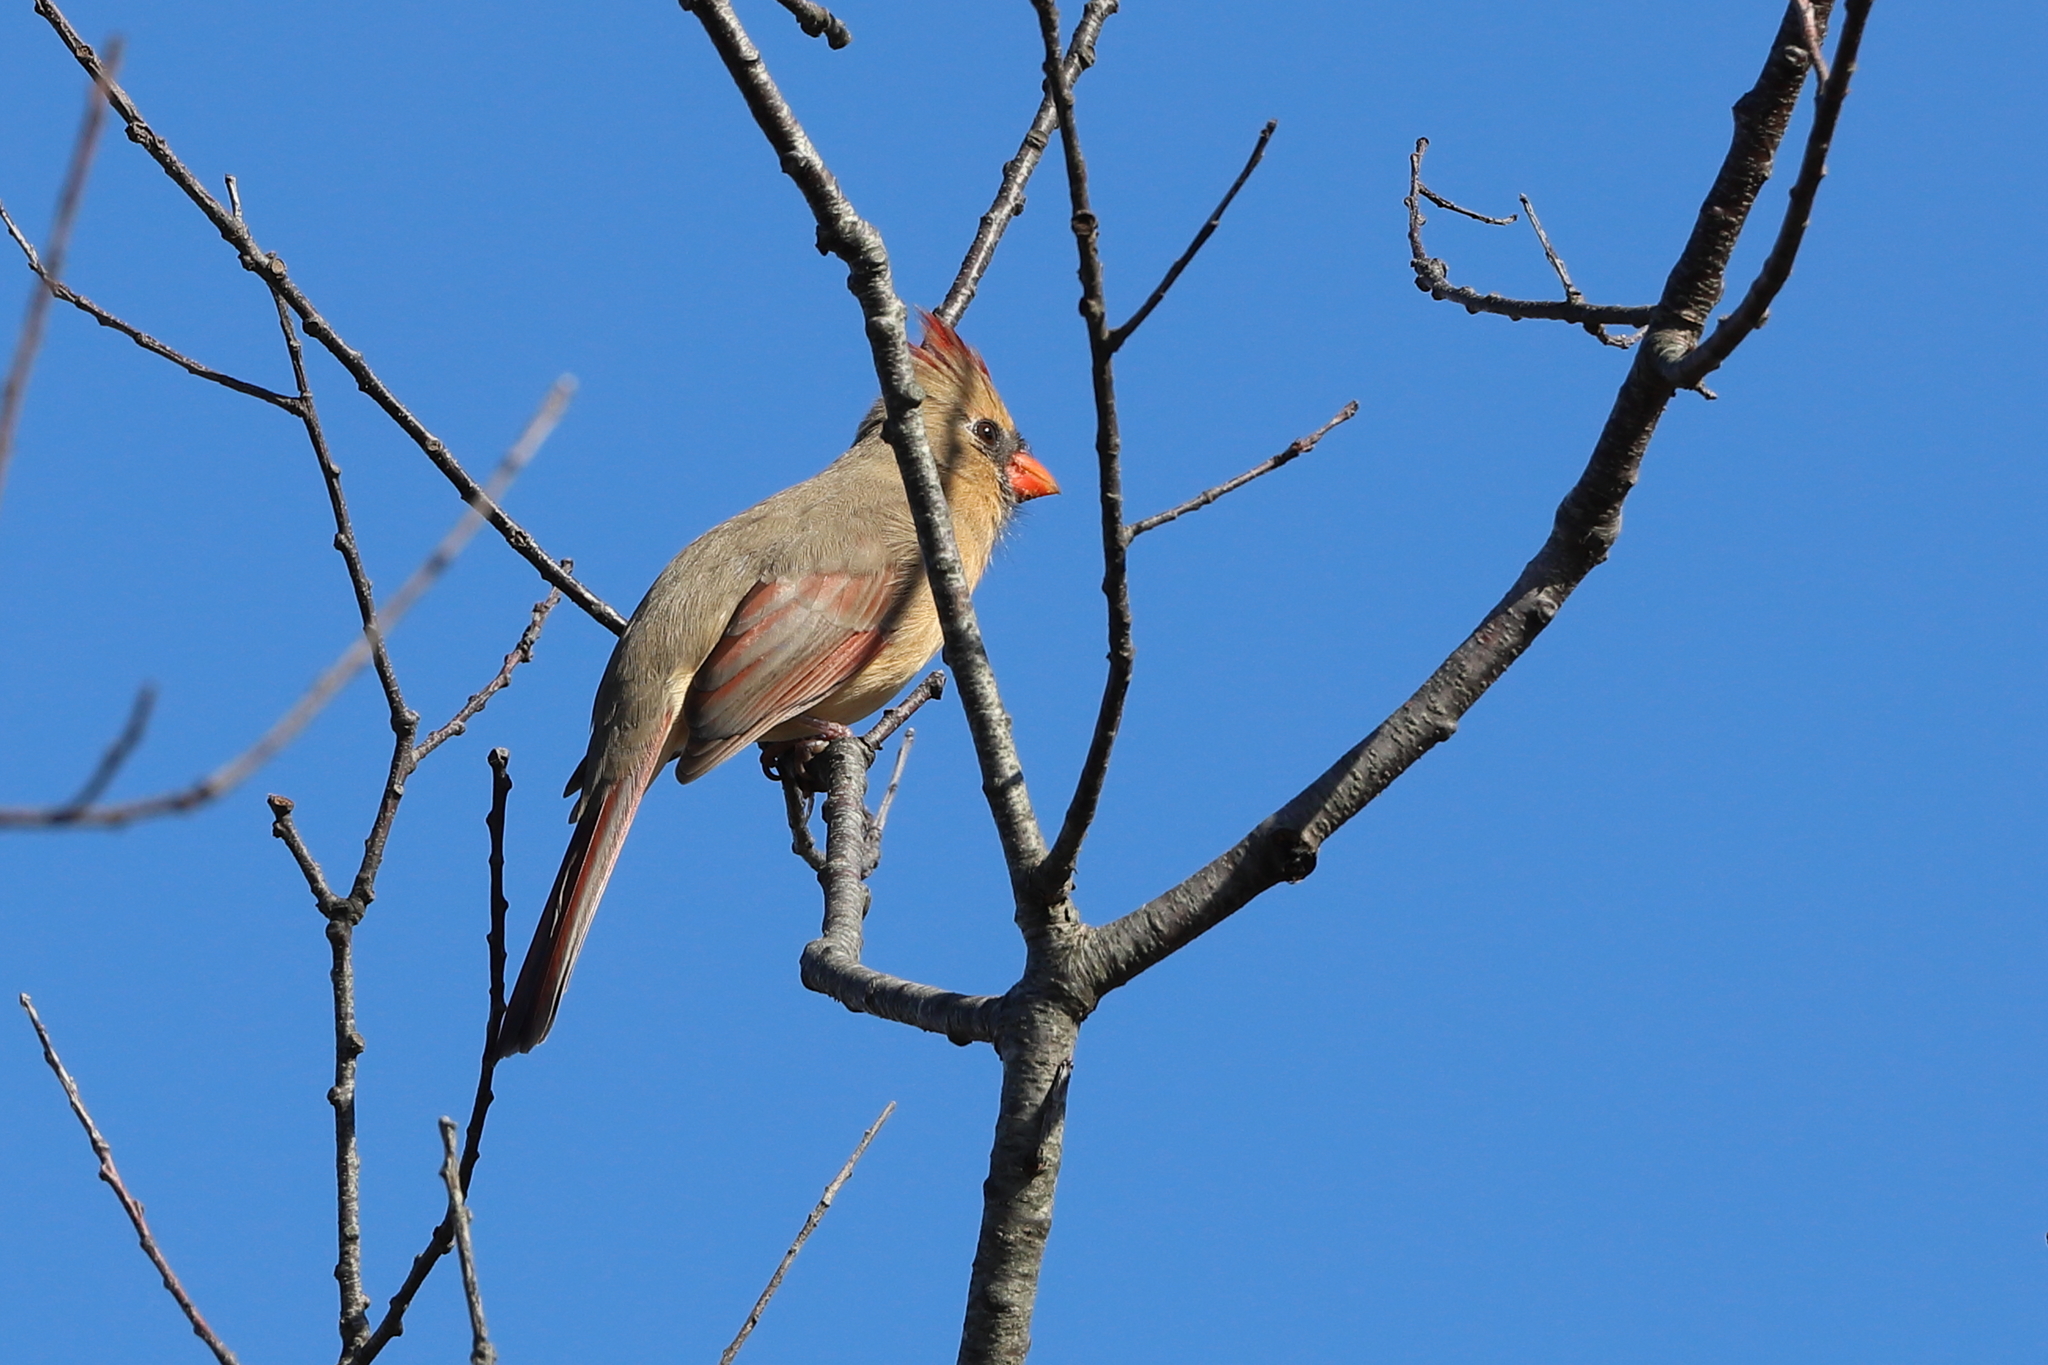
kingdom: Animalia
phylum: Chordata
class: Aves
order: Passeriformes
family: Cardinalidae
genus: Cardinalis
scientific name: Cardinalis cardinalis
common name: Northern cardinal
